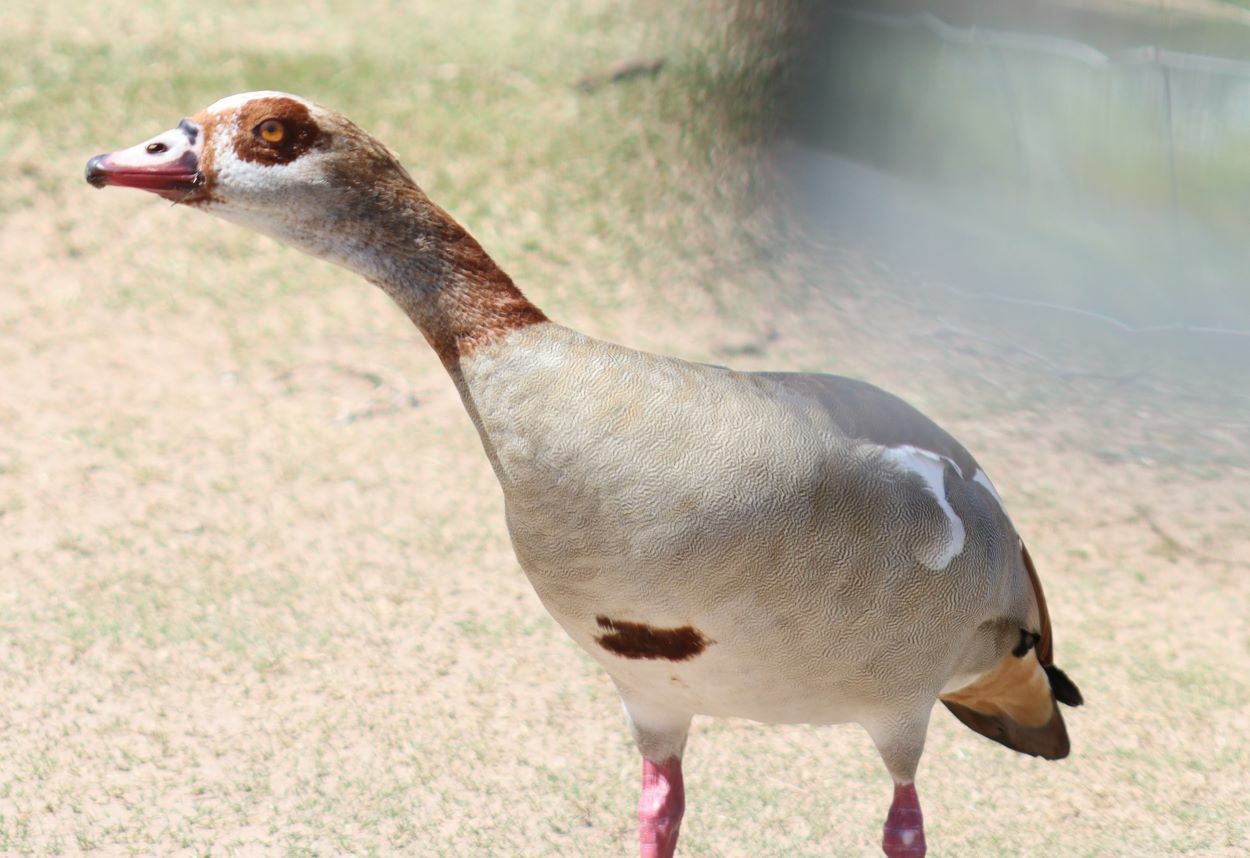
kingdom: Animalia
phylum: Chordata
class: Aves
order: Anseriformes
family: Anatidae
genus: Alopochen
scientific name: Alopochen aegyptiaca
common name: Egyptian goose
